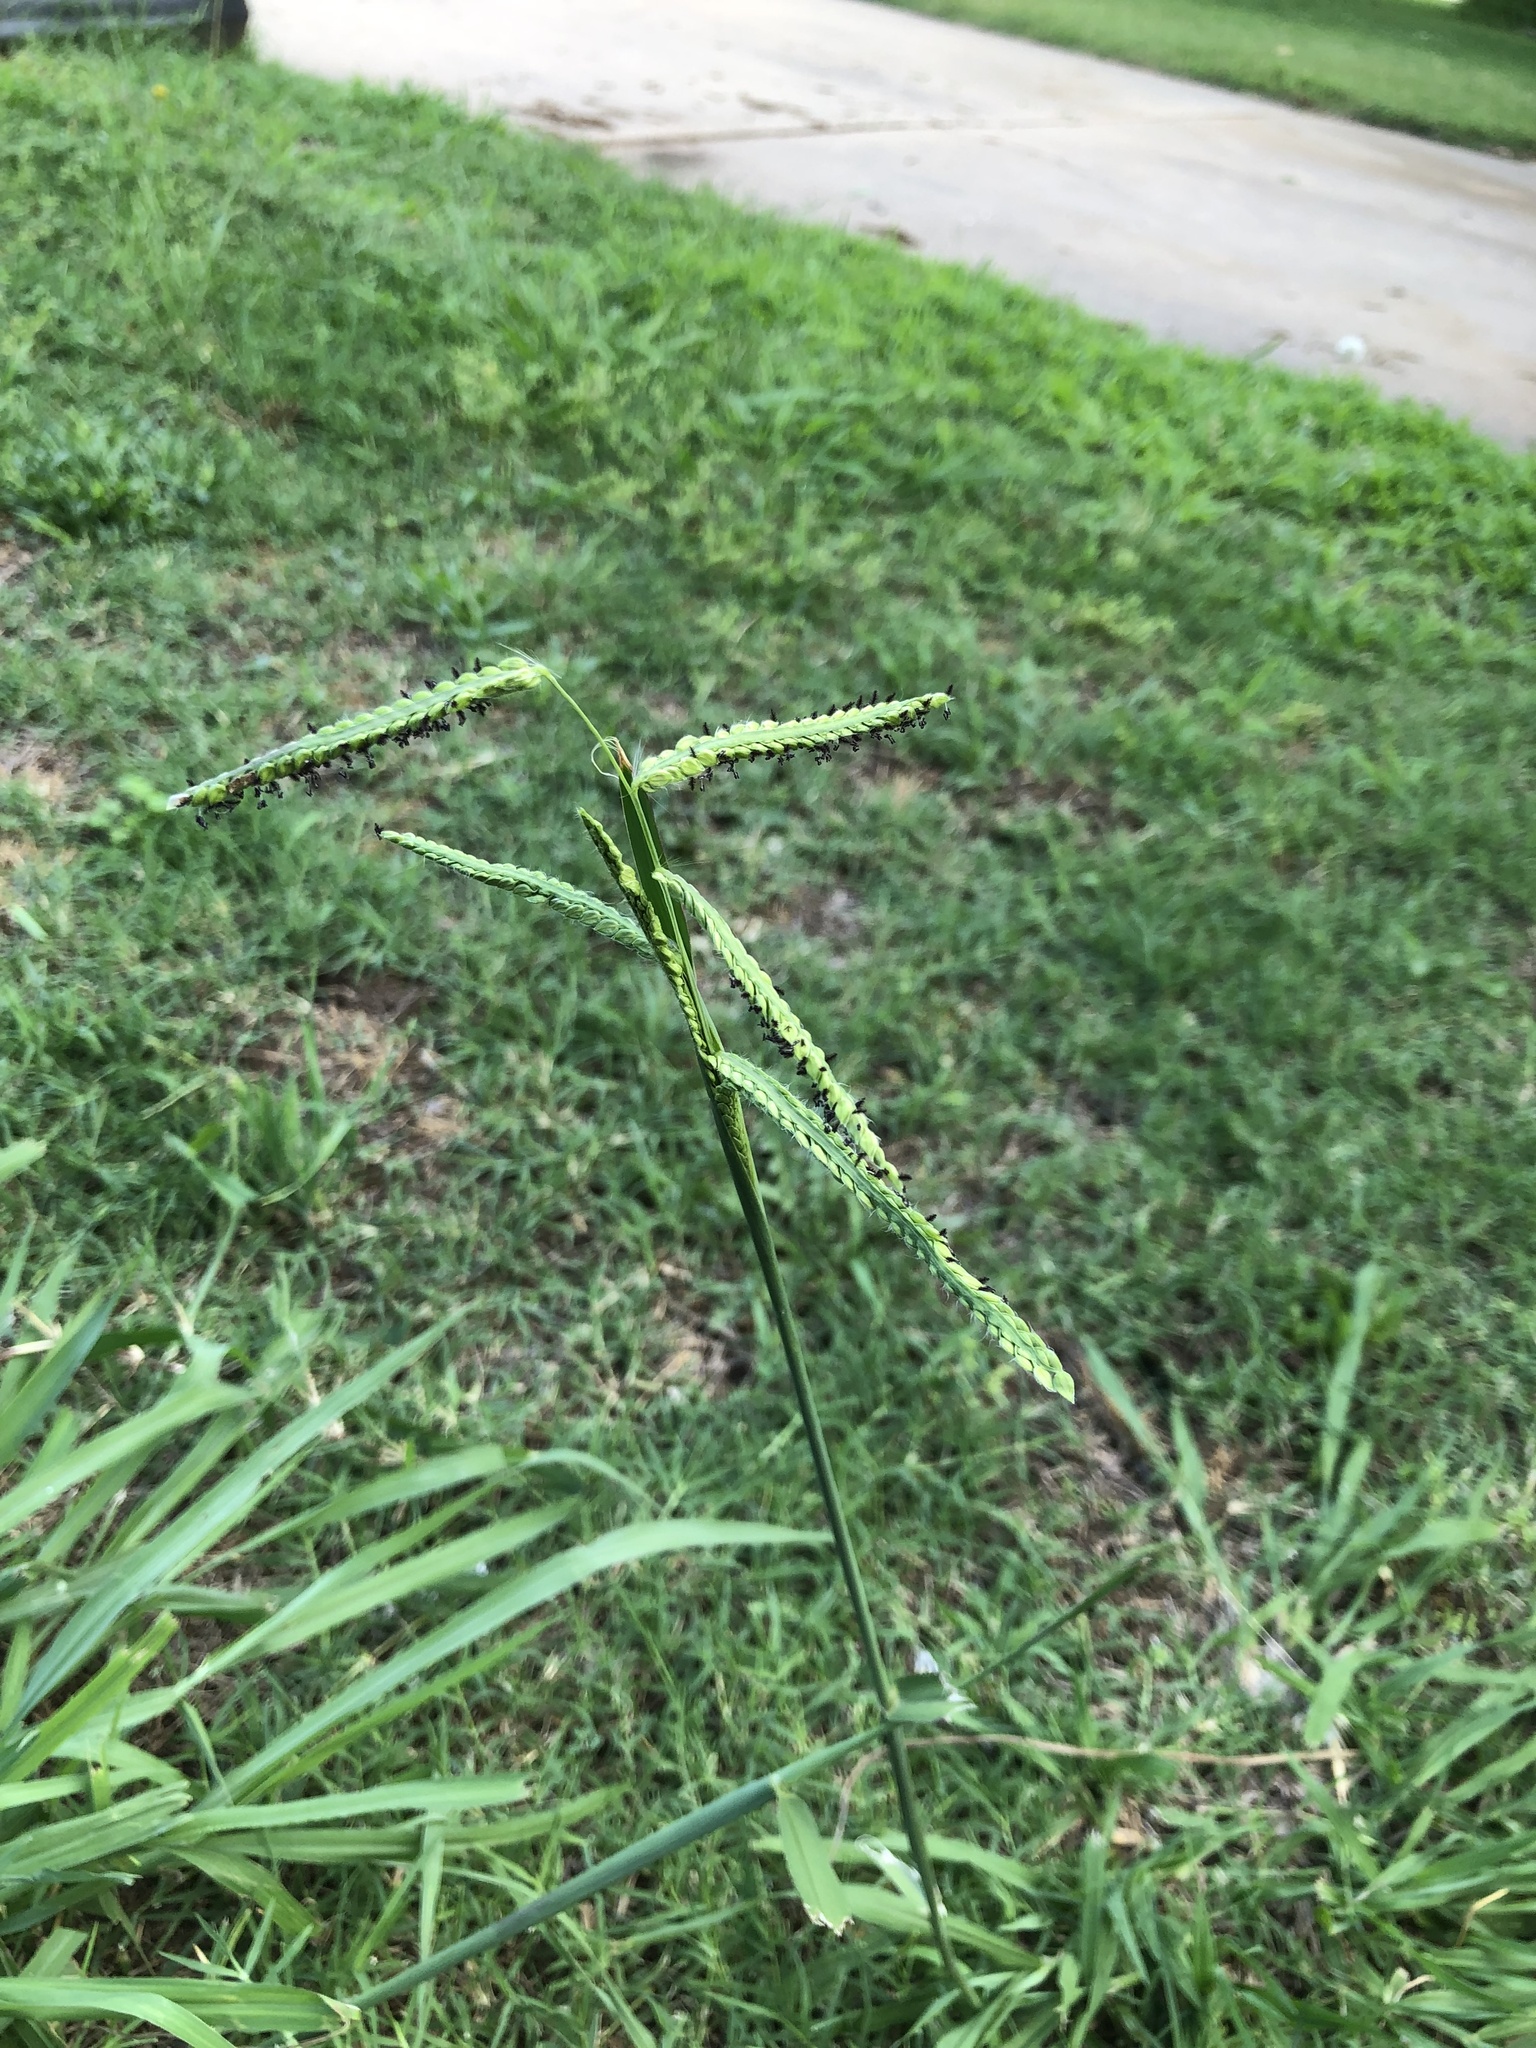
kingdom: Plantae
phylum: Tracheophyta
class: Liliopsida
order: Poales
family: Poaceae
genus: Paspalum
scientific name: Paspalum dilatatum
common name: Dallisgrass
